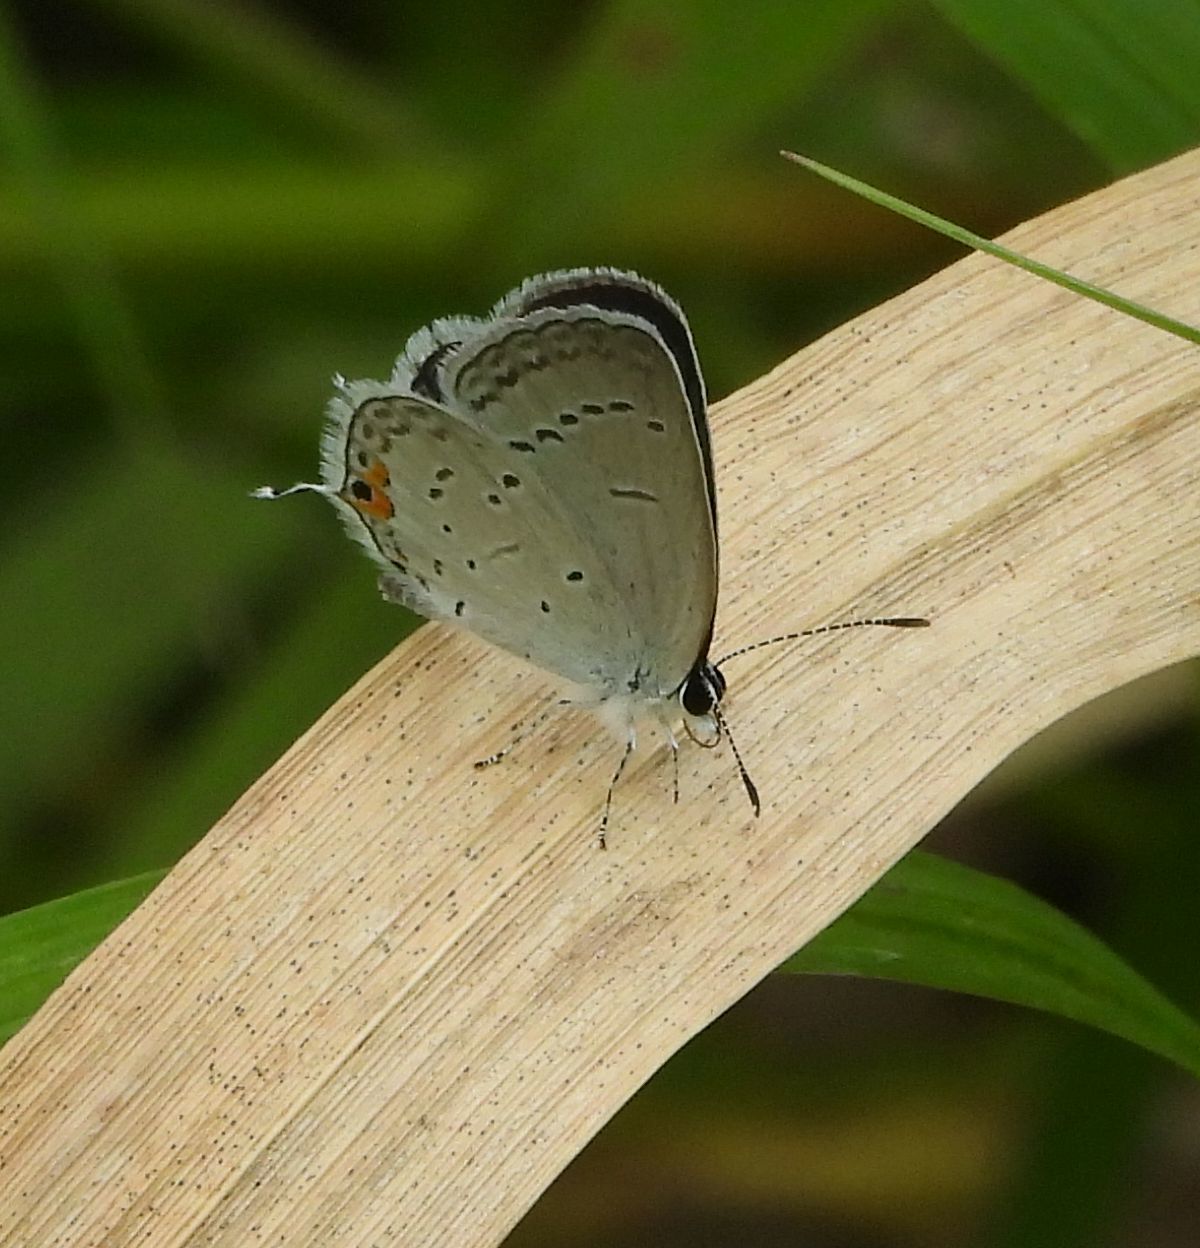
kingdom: Animalia
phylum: Arthropoda
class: Insecta
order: Lepidoptera
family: Lycaenidae
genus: Elkalyce
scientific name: Elkalyce comyntas
